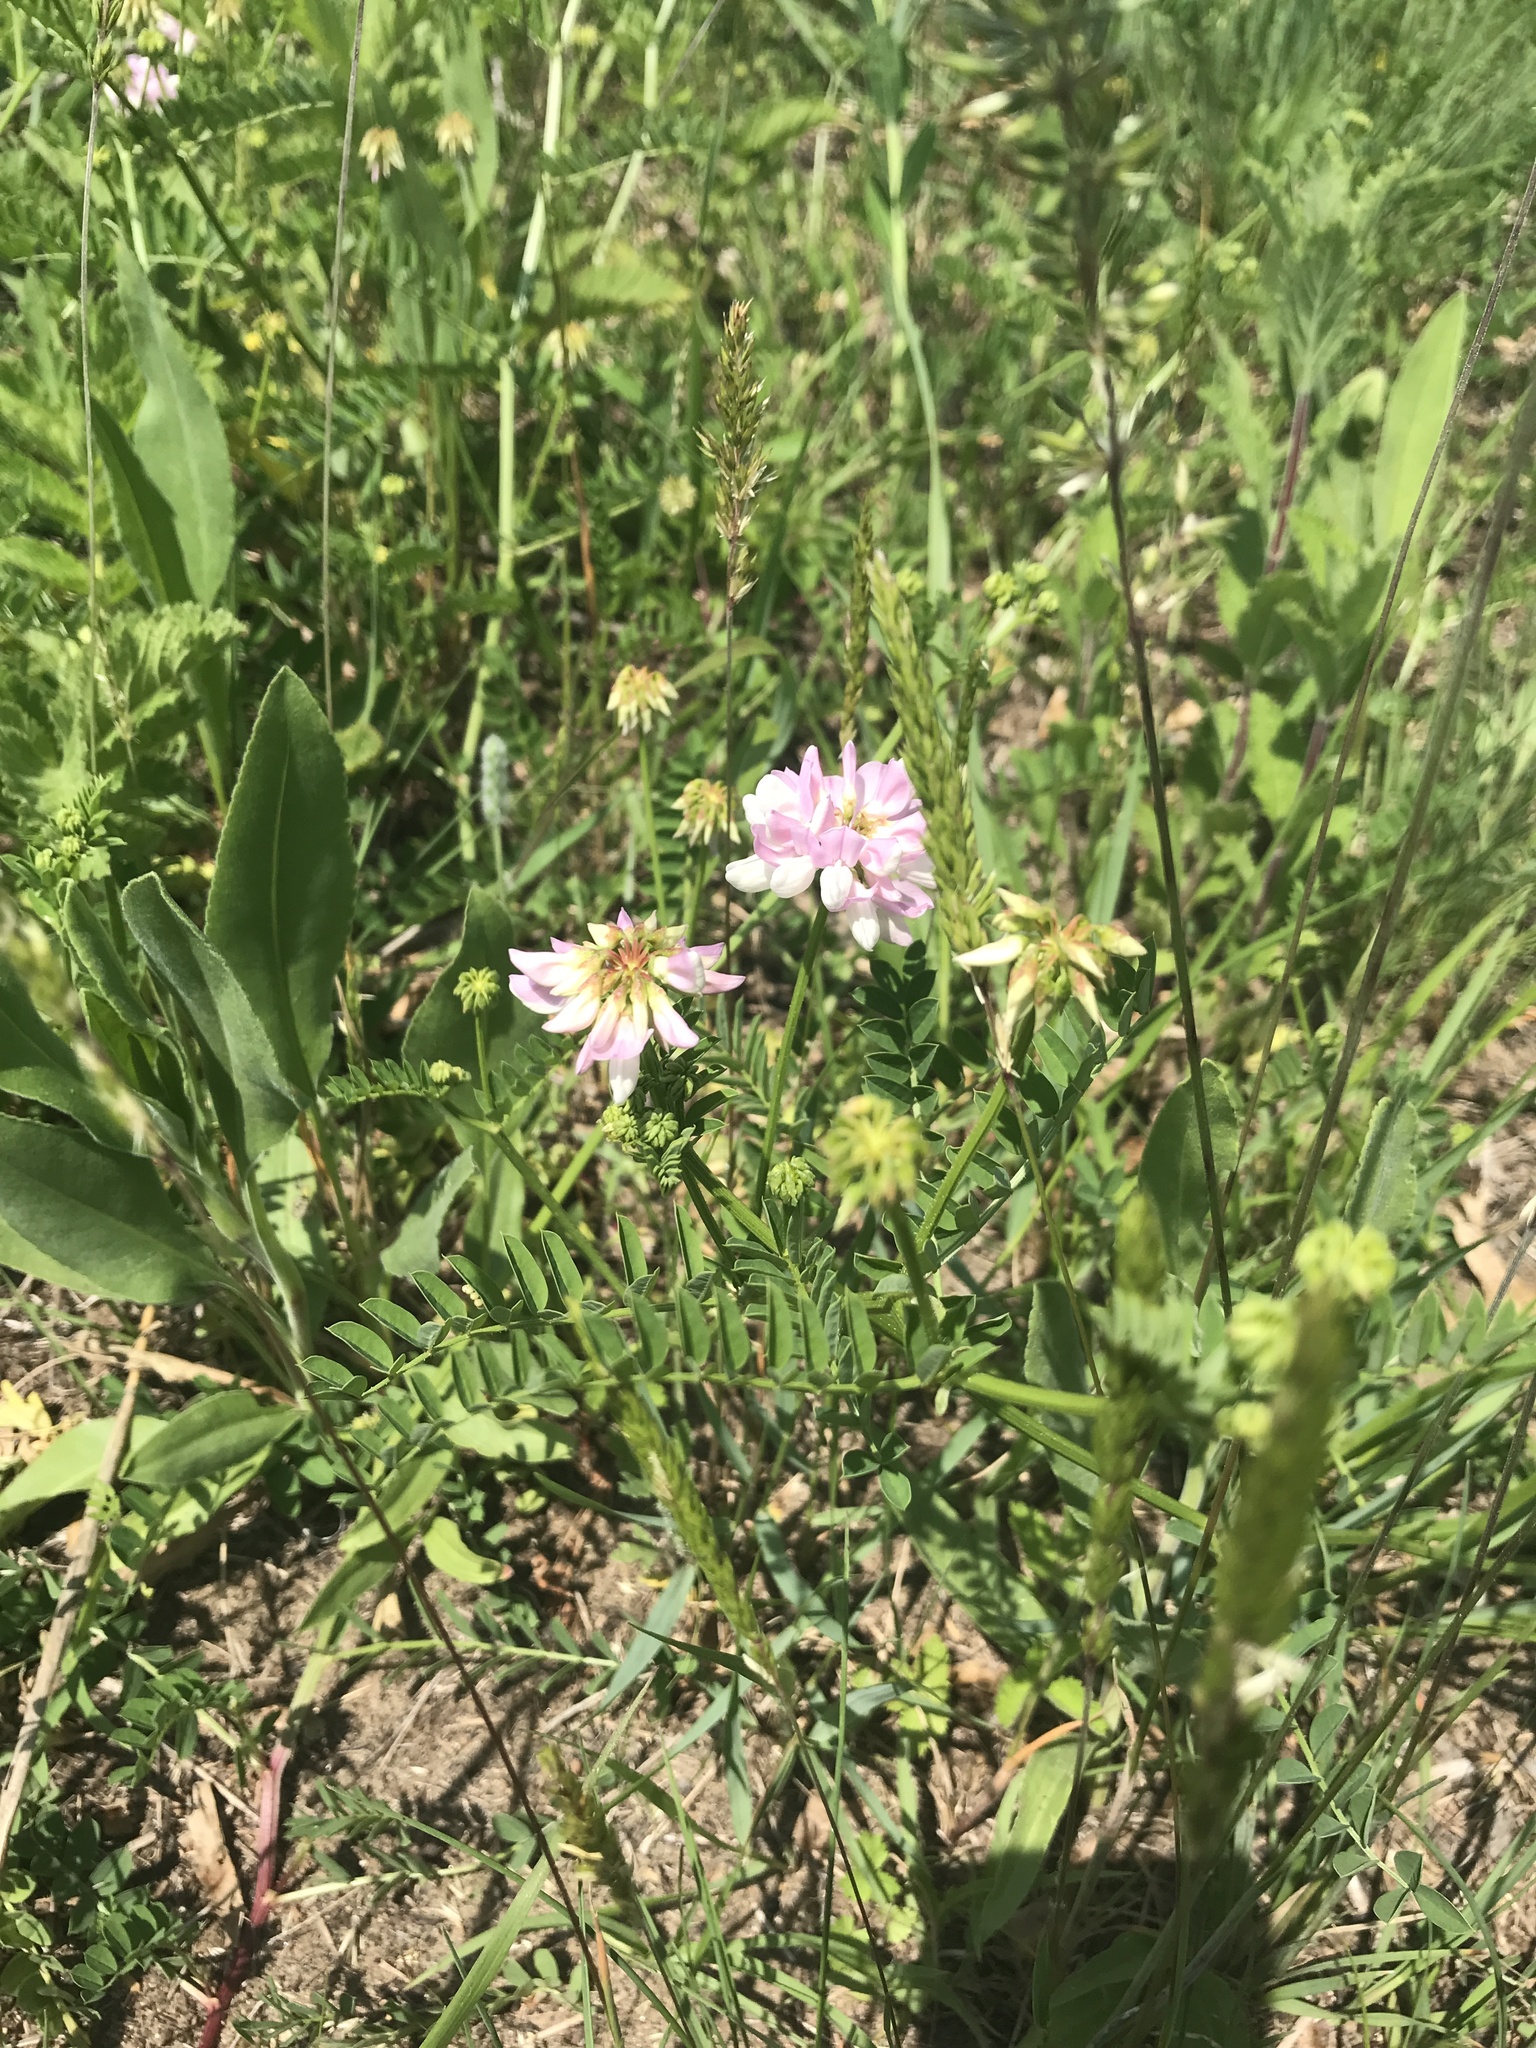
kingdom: Plantae
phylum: Tracheophyta
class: Magnoliopsida
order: Fabales
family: Fabaceae
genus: Coronilla
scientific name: Coronilla varia
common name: Crownvetch
